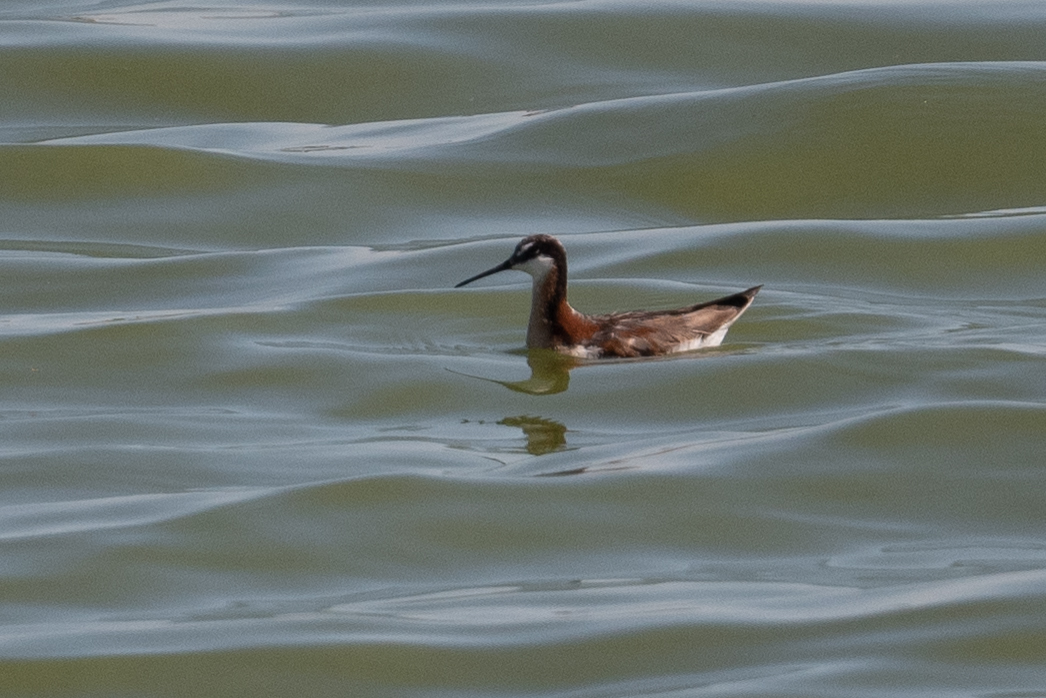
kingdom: Animalia
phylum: Chordata
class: Aves
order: Charadriiformes
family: Scolopacidae
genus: Phalaropus
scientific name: Phalaropus tricolor
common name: Wilson's phalarope
